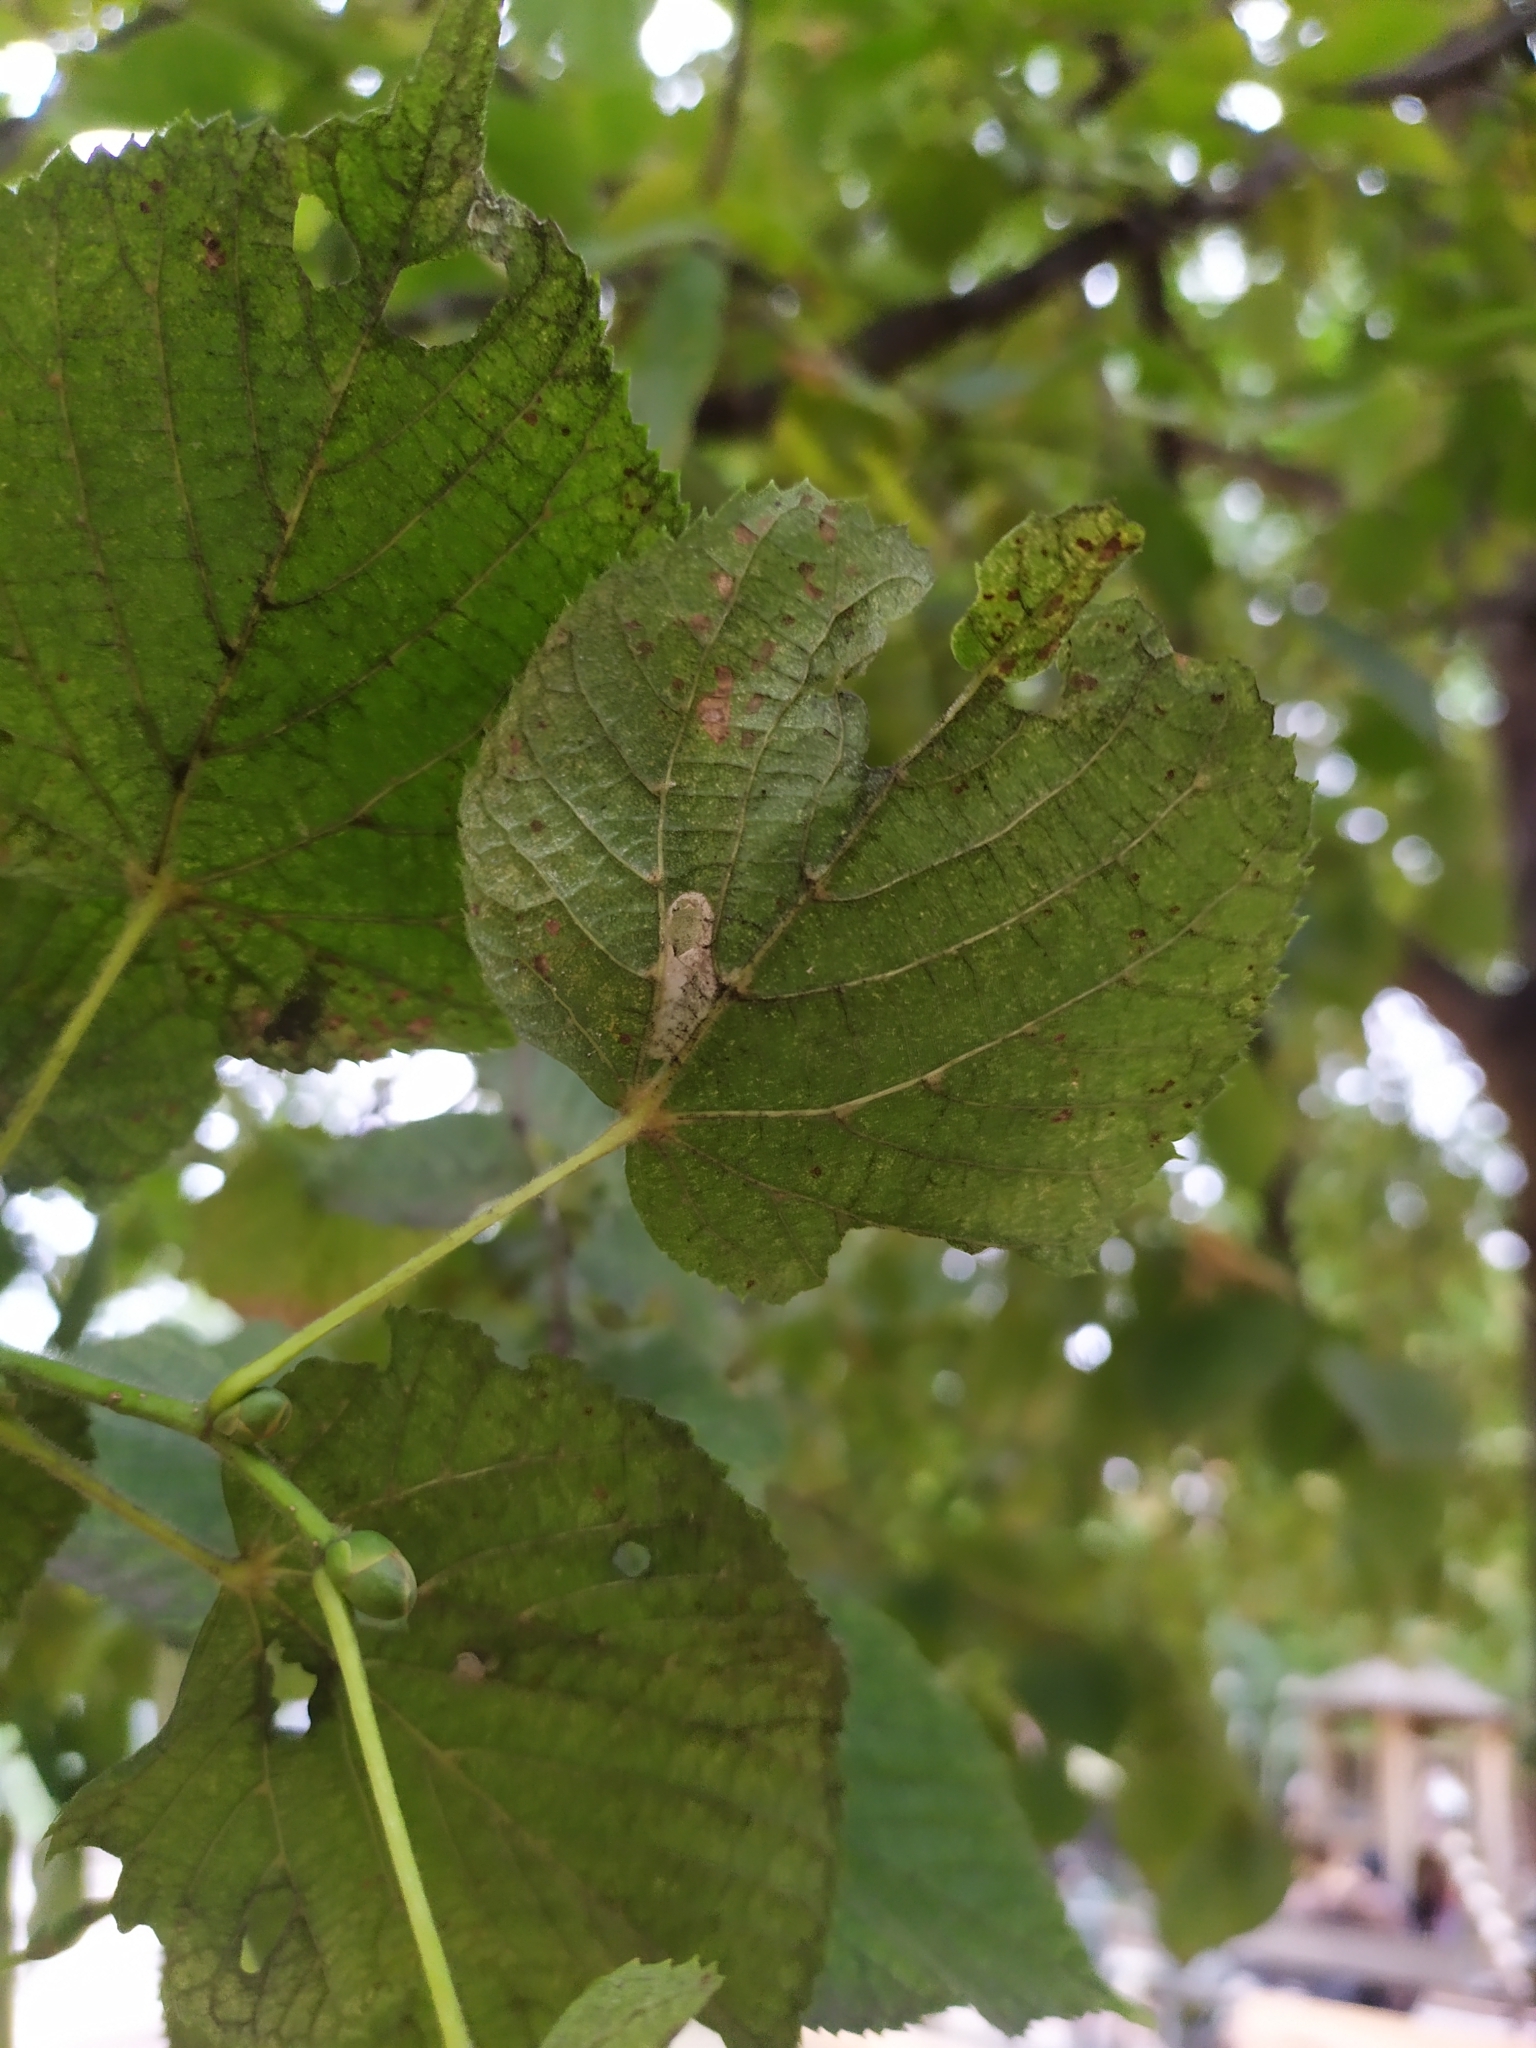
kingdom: Animalia
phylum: Arthropoda
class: Insecta
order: Lepidoptera
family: Gracillariidae
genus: Phyllonorycter
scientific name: Phyllonorycter issikii
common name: Linden midget
